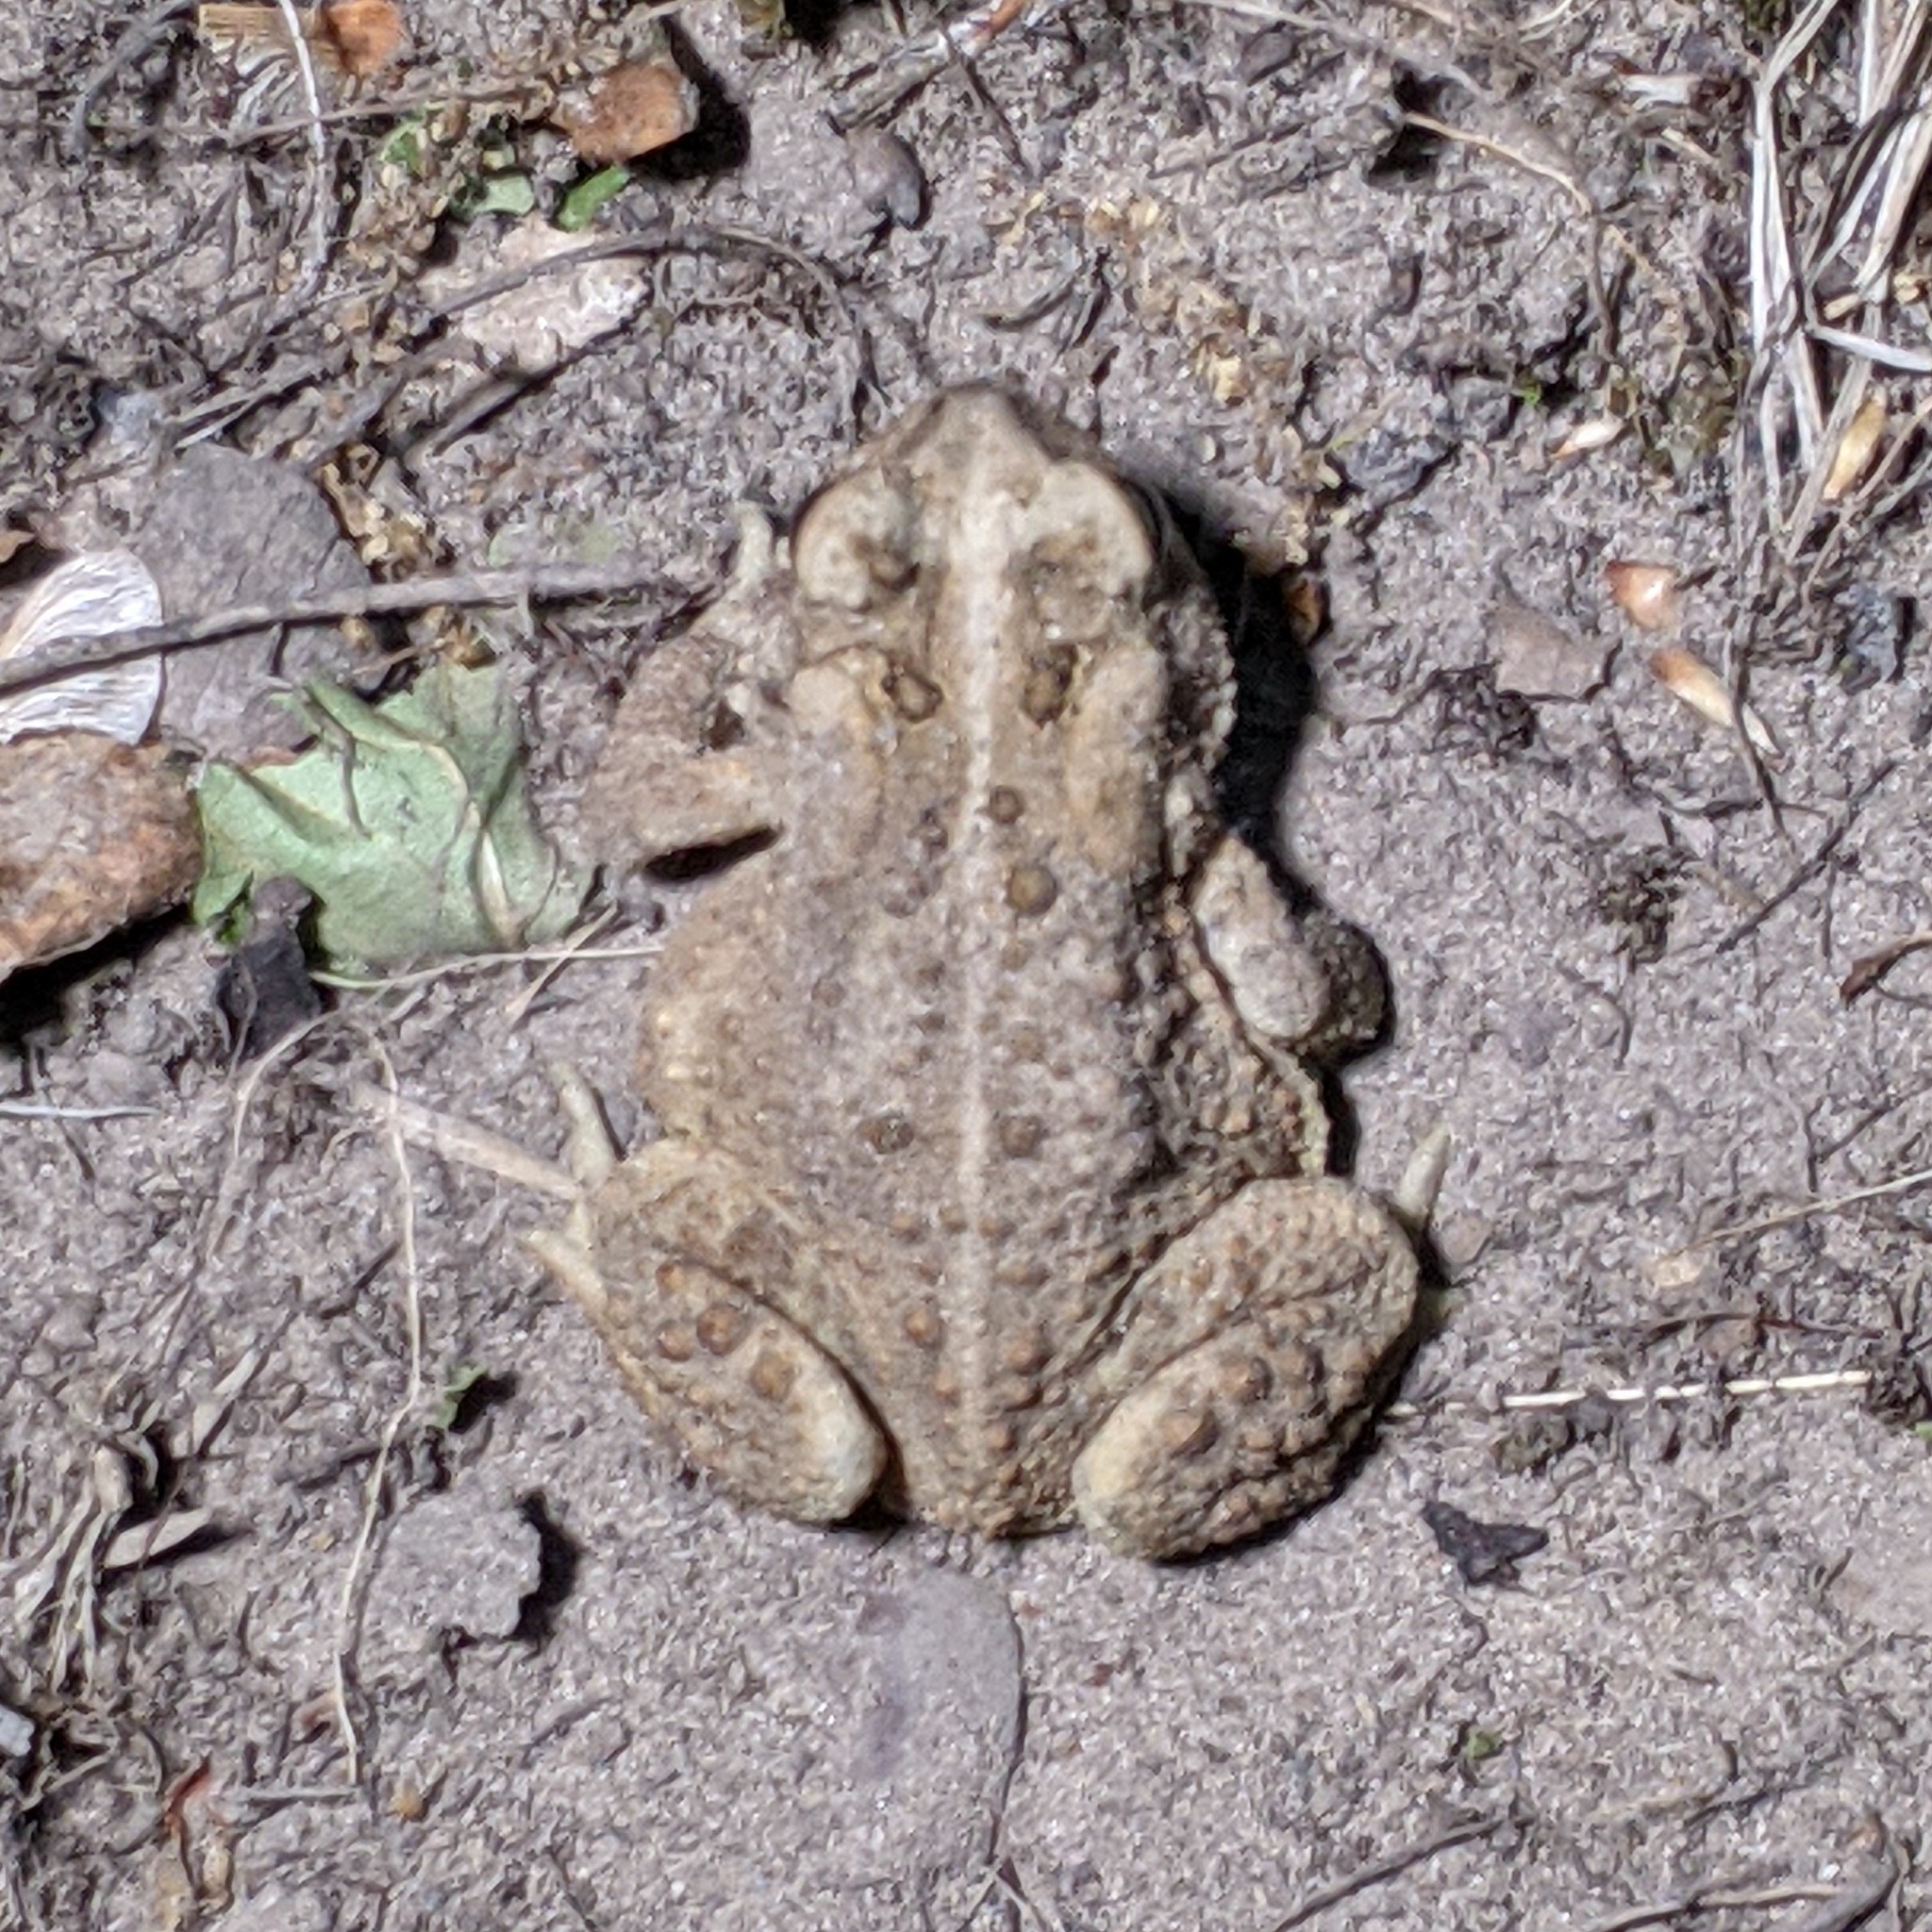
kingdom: Animalia
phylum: Chordata
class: Amphibia
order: Anura
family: Bufonidae
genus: Anaxyrus
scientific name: Anaxyrus americanus
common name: American toad
